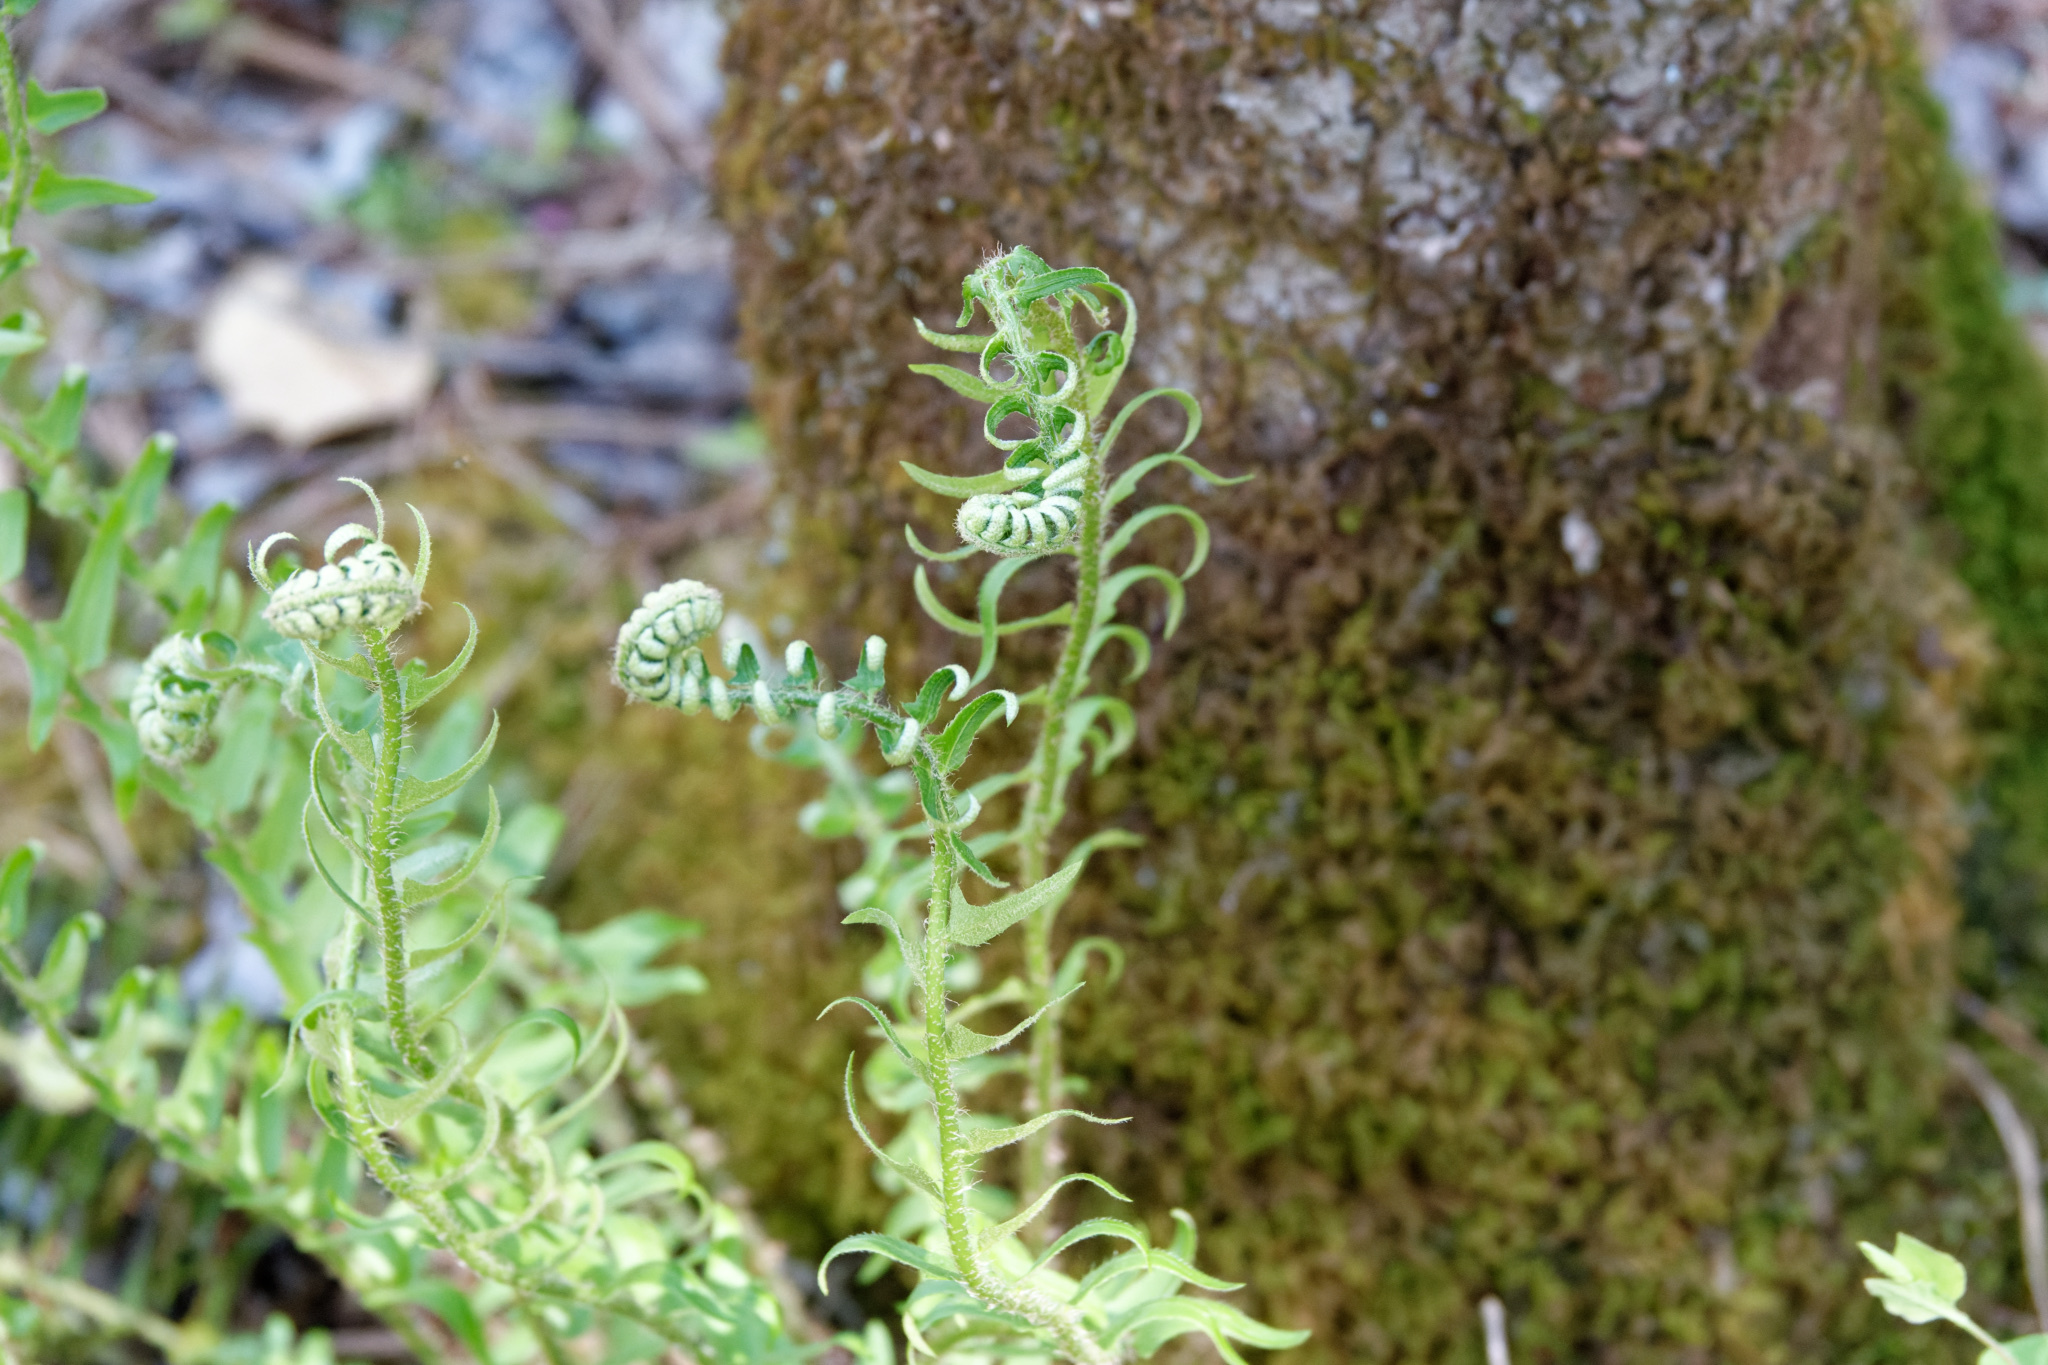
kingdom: Plantae
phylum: Tracheophyta
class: Polypodiopsida
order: Polypodiales
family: Dryopteridaceae
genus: Polystichum
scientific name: Polystichum acrostichoides
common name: Christmas fern
